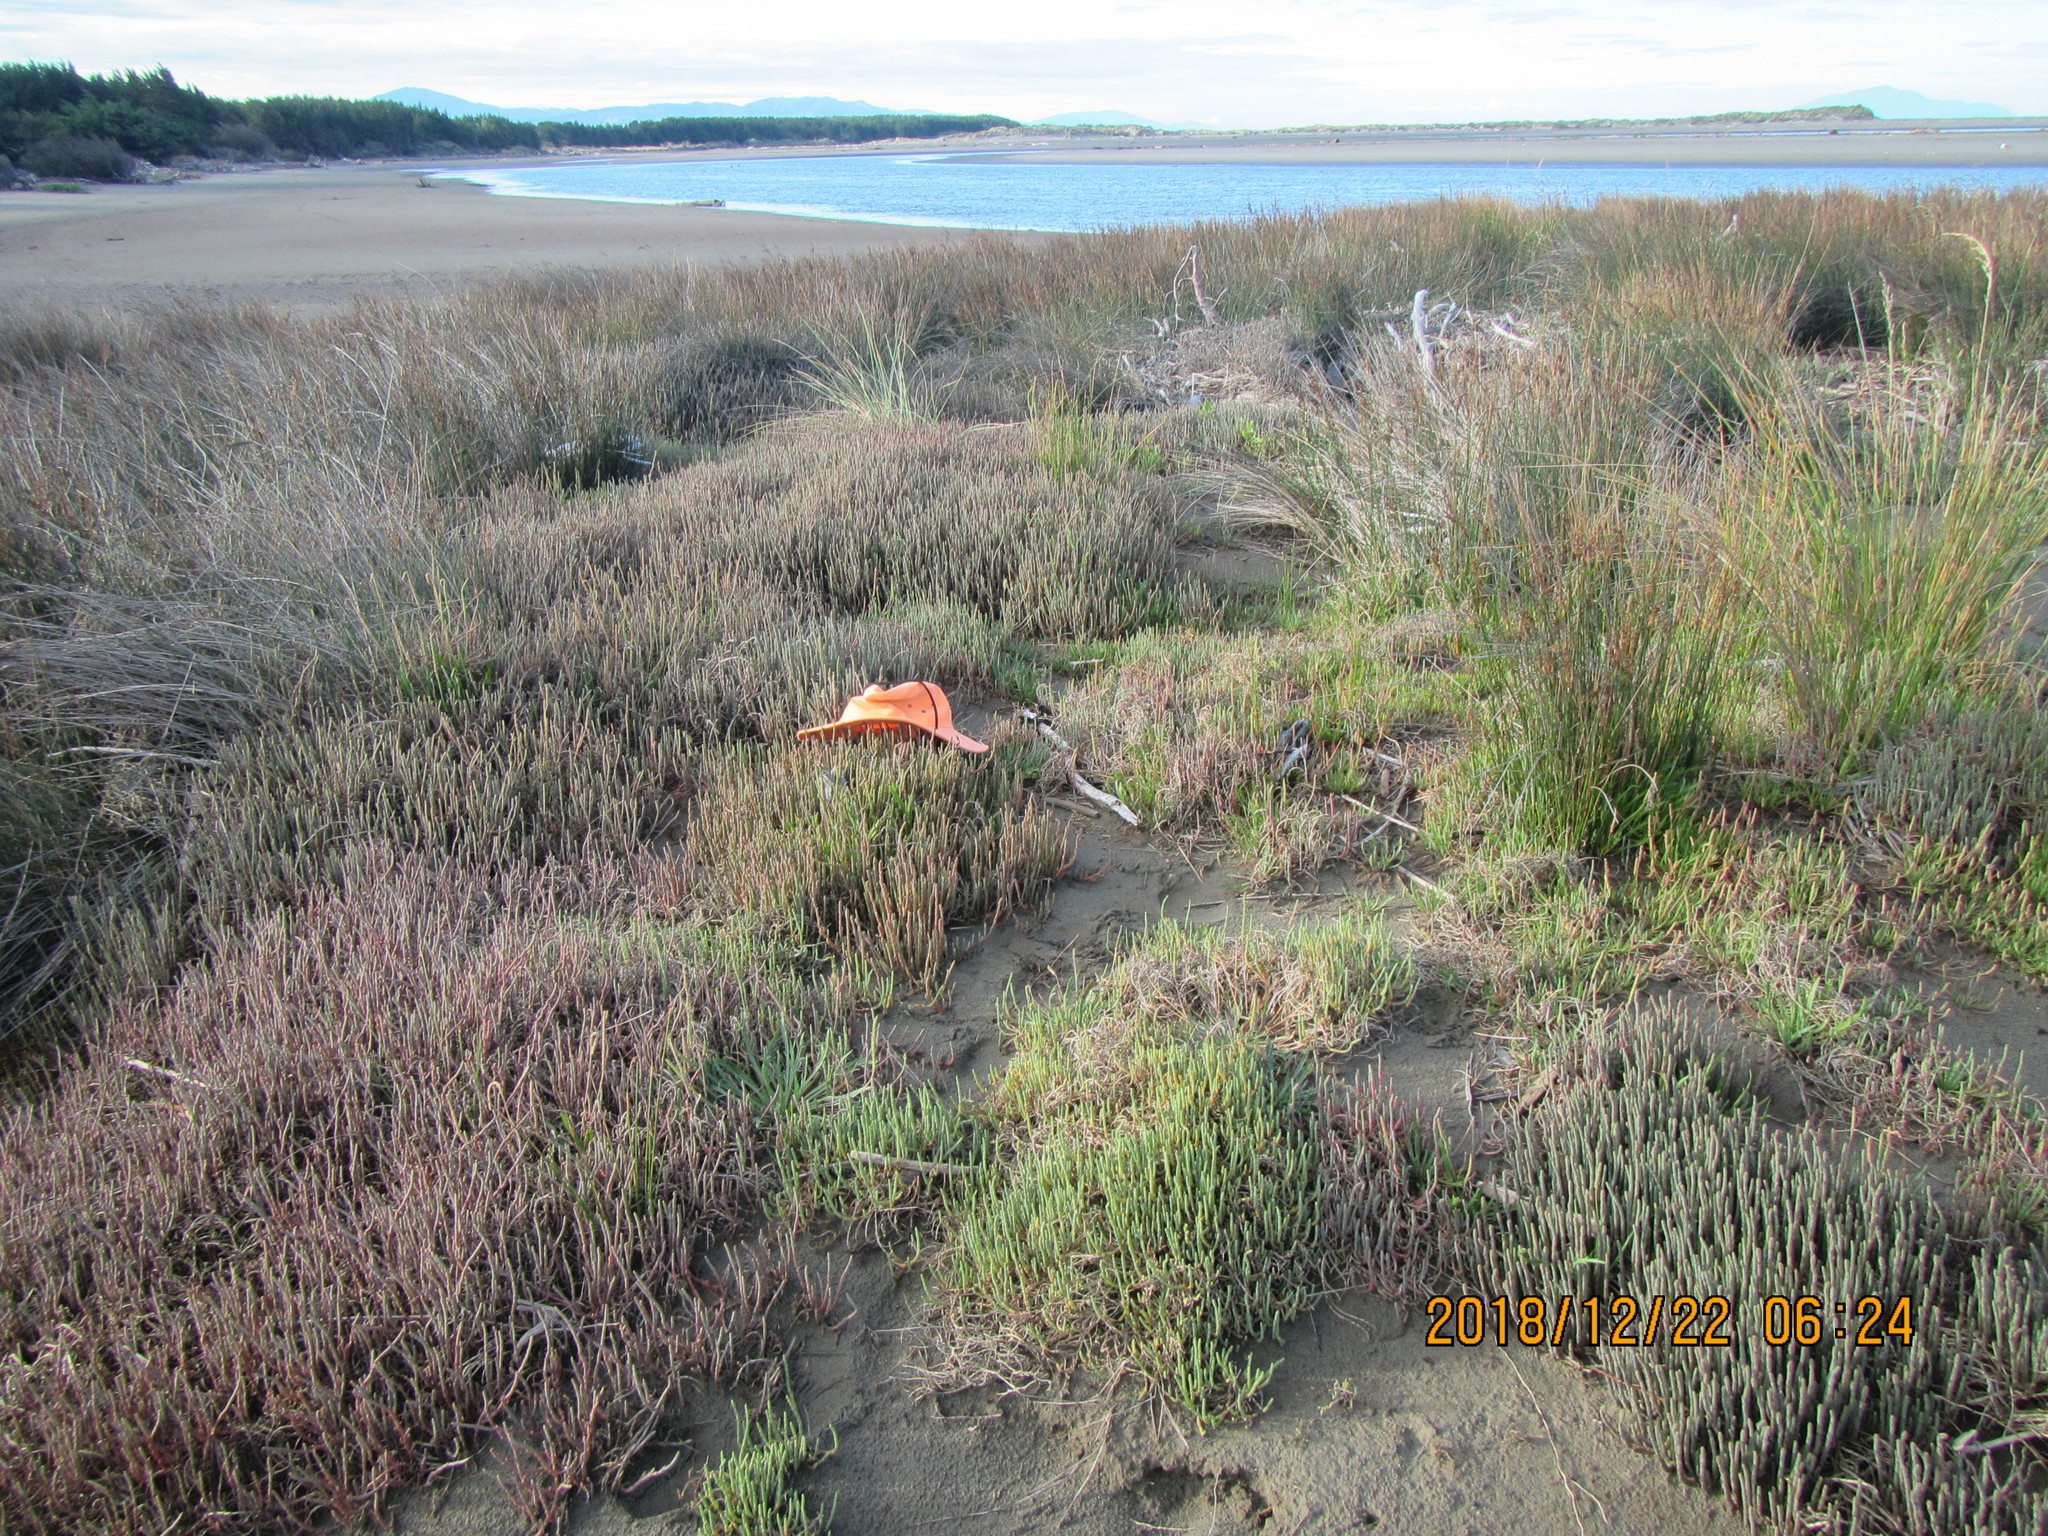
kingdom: Plantae
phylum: Tracheophyta
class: Magnoliopsida
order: Lamiales
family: Plantaginaceae
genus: Plantago
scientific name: Plantago coronopus
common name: Buck's-horn plantain
